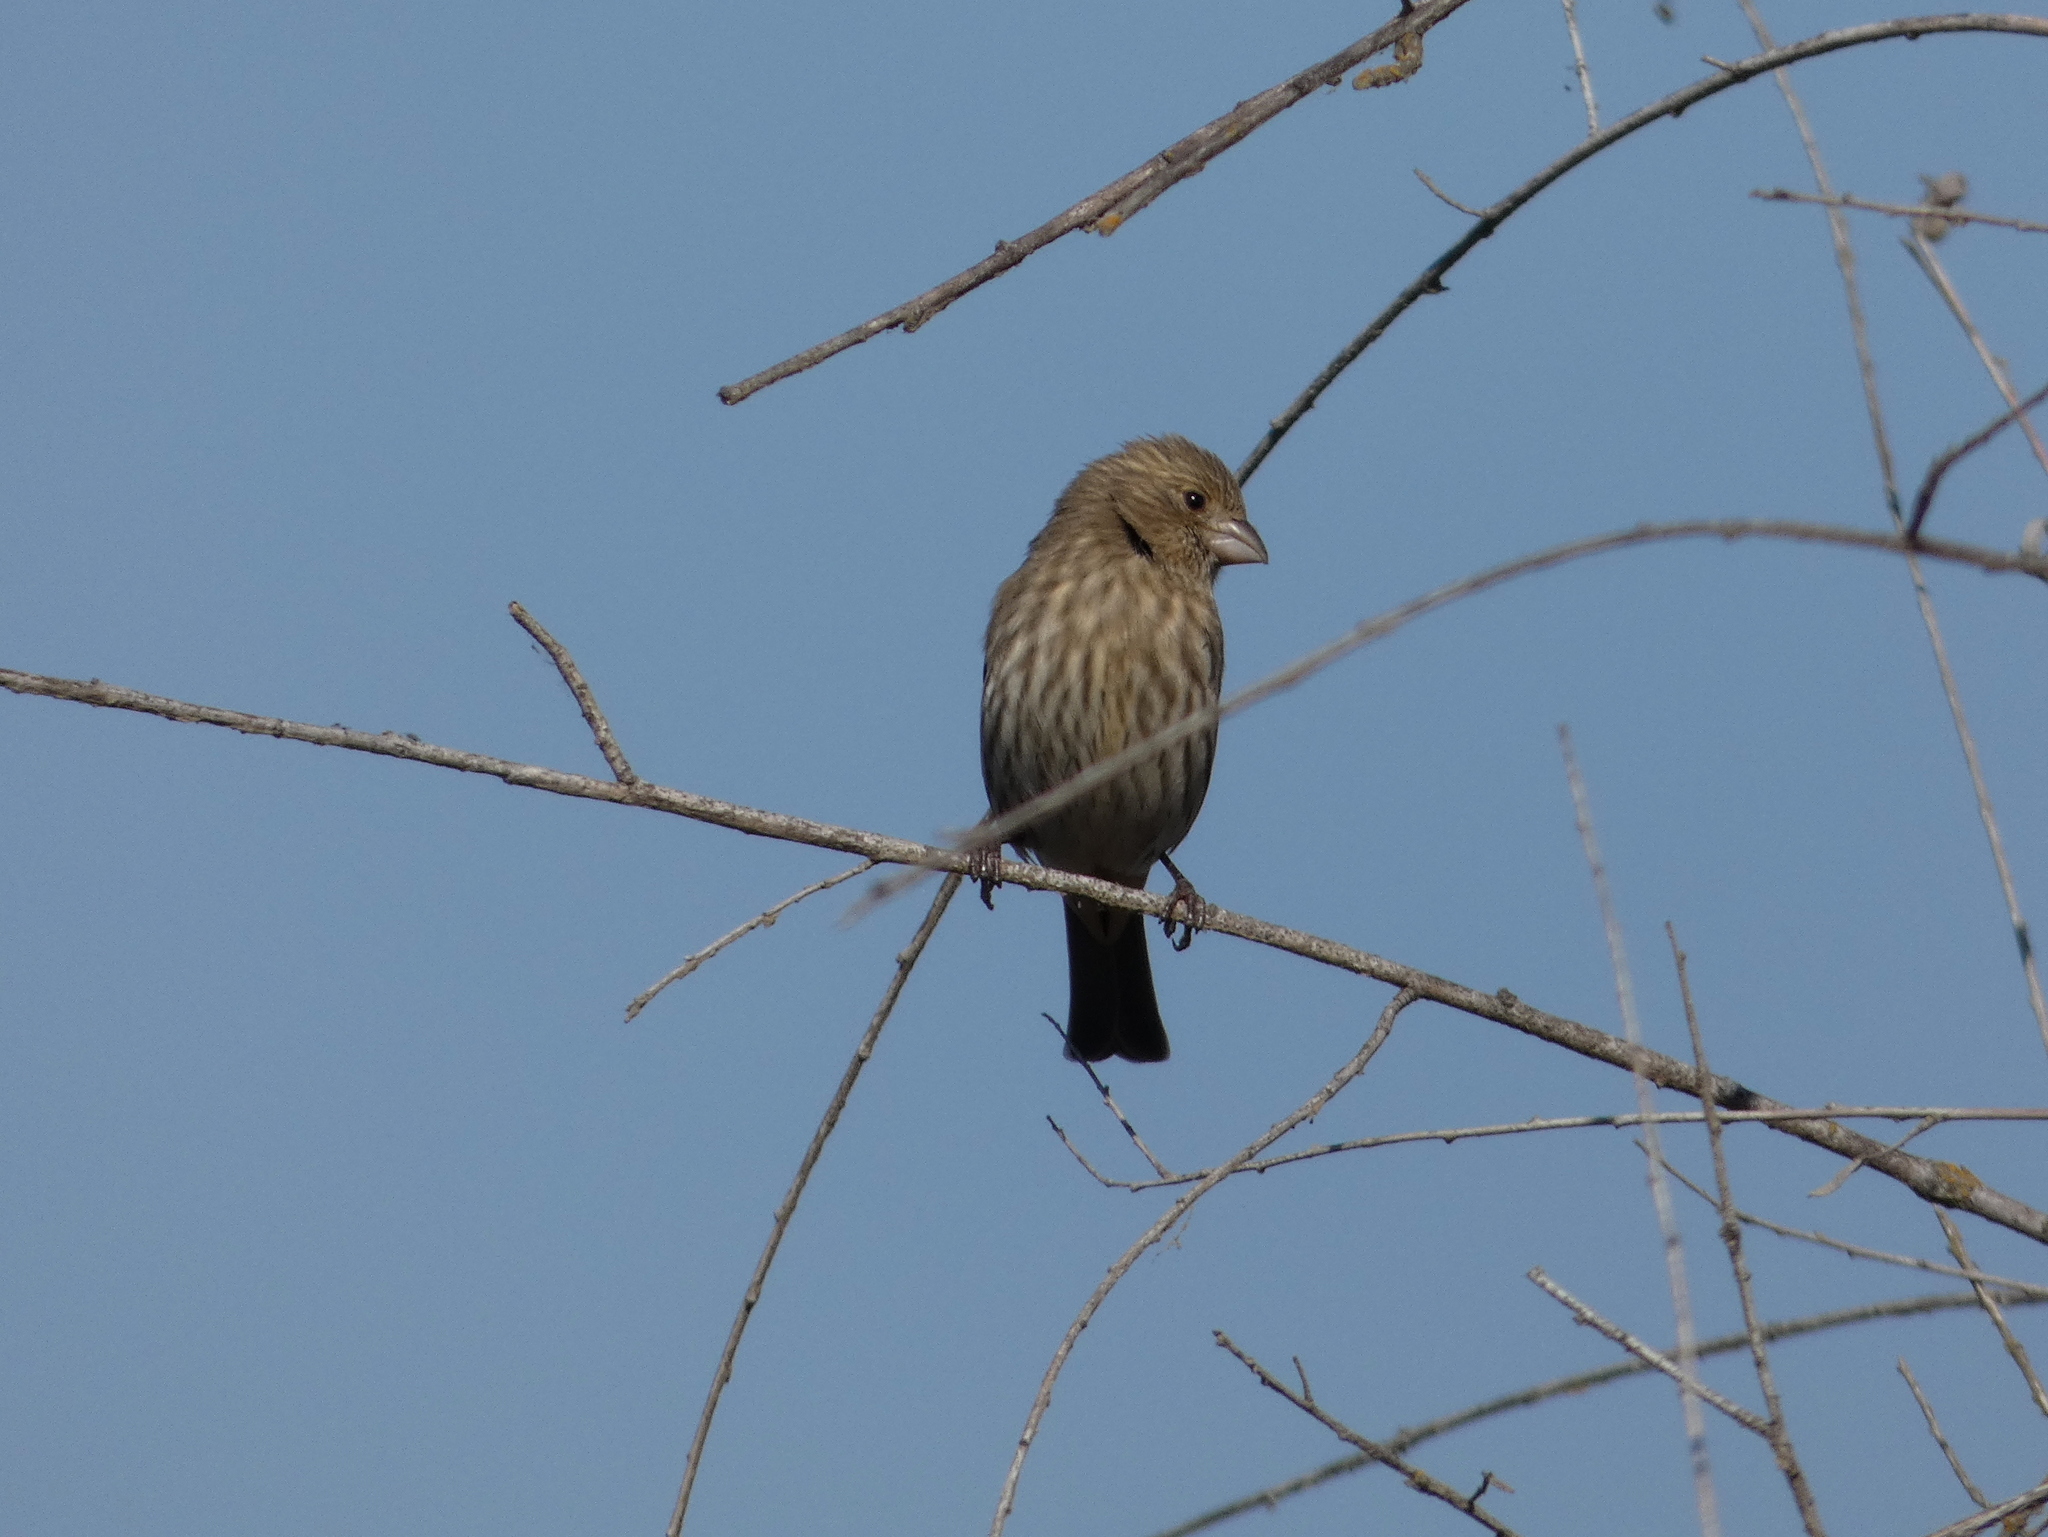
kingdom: Animalia
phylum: Chordata
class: Aves
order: Passeriformes
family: Fringillidae
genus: Haemorhous
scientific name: Haemorhous mexicanus
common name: House finch
